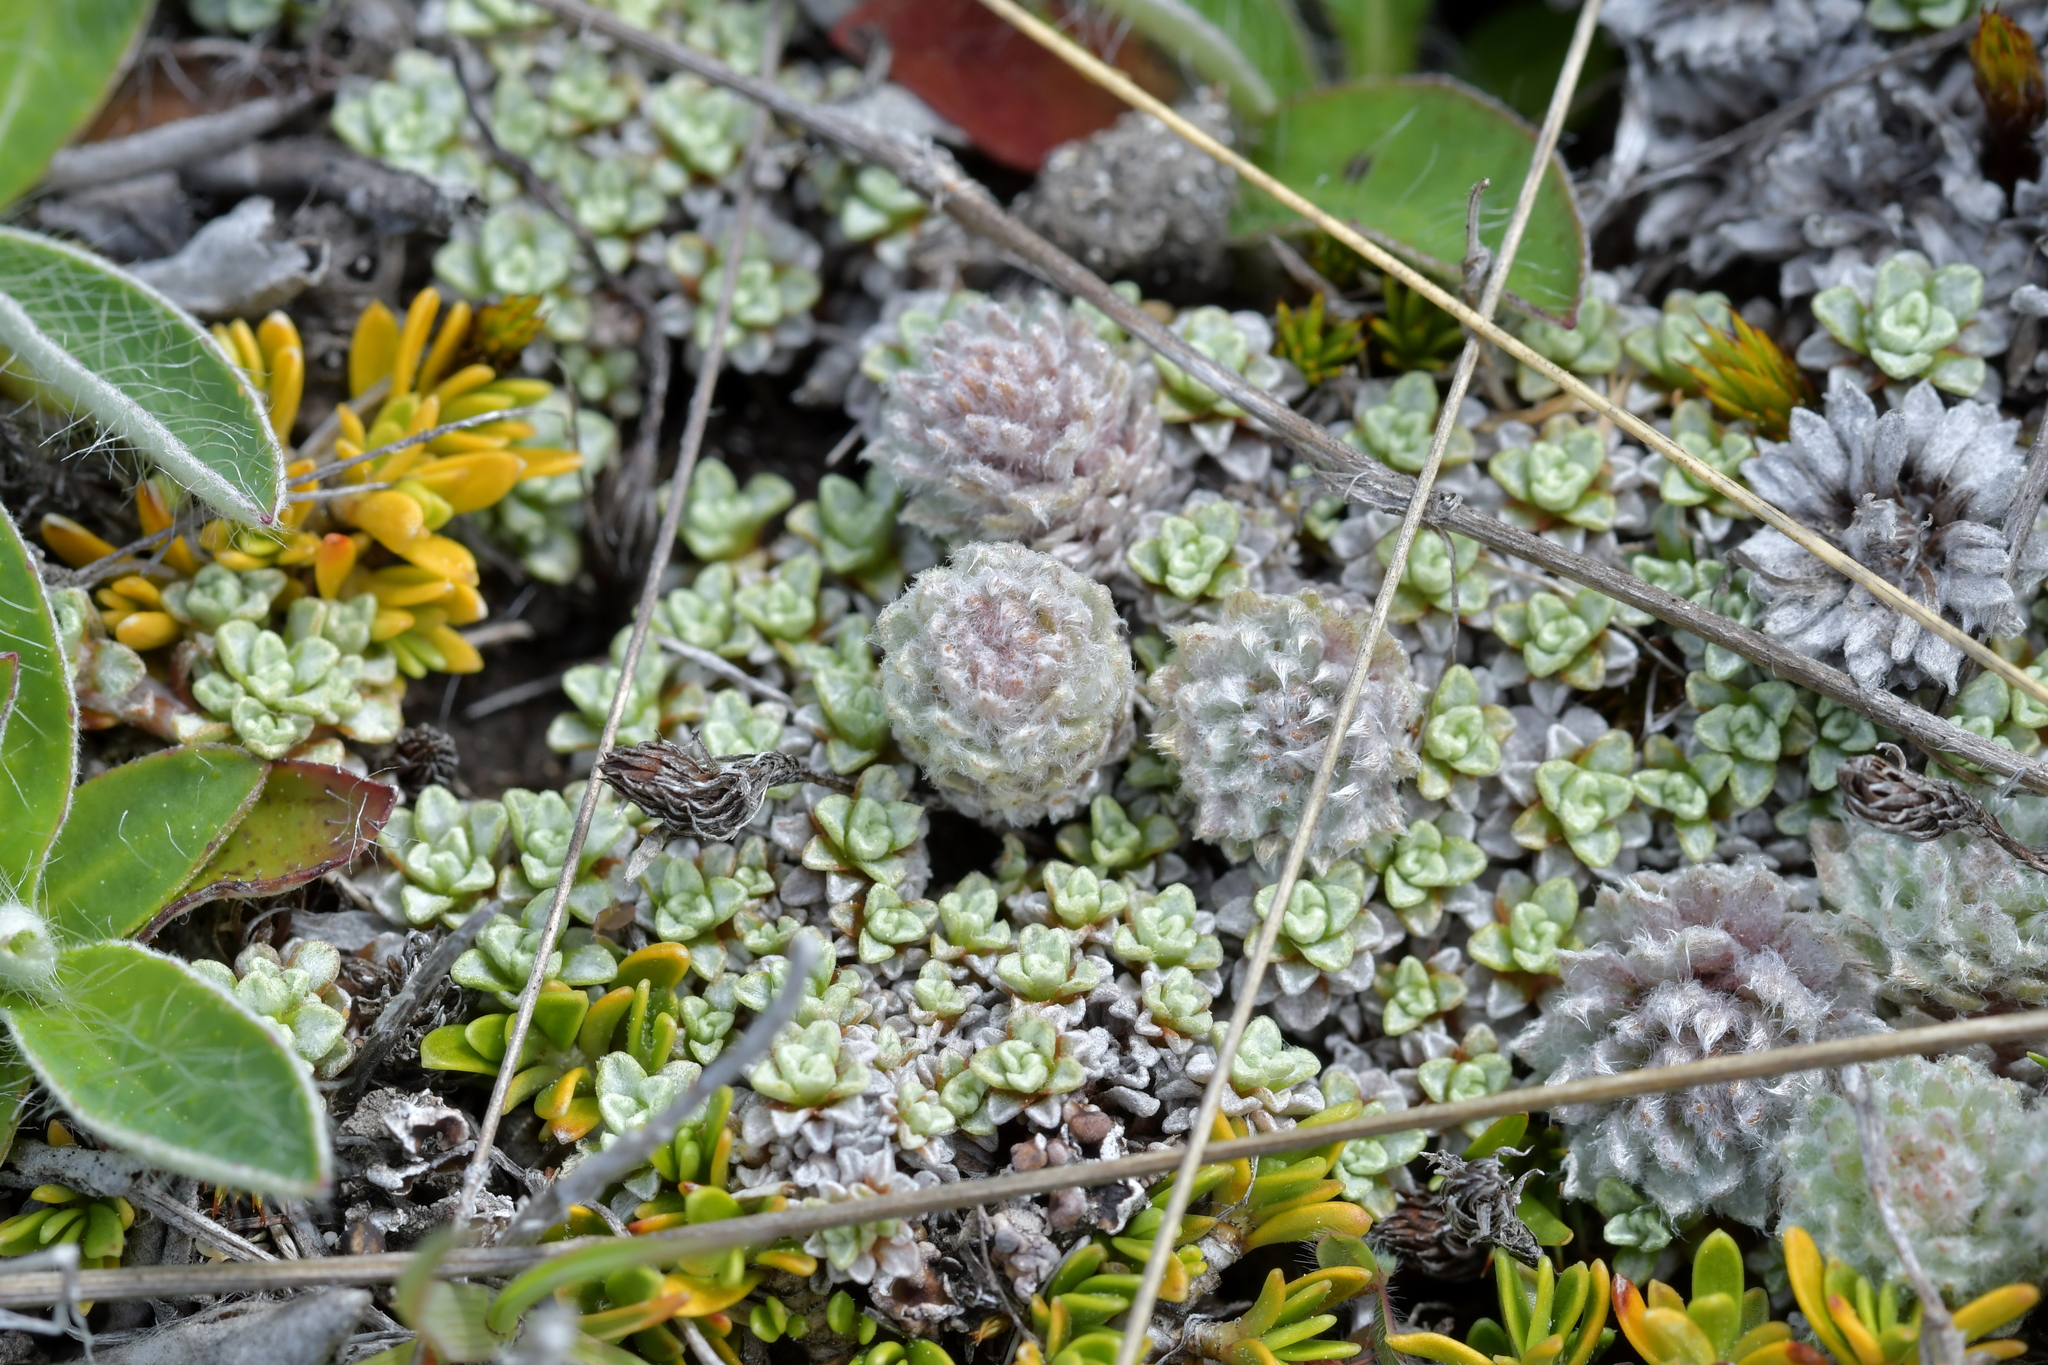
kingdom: Plantae
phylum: Tracheophyta
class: Magnoliopsida
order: Asterales
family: Asteraceae
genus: Raoulia
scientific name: Raoulia subsericea
